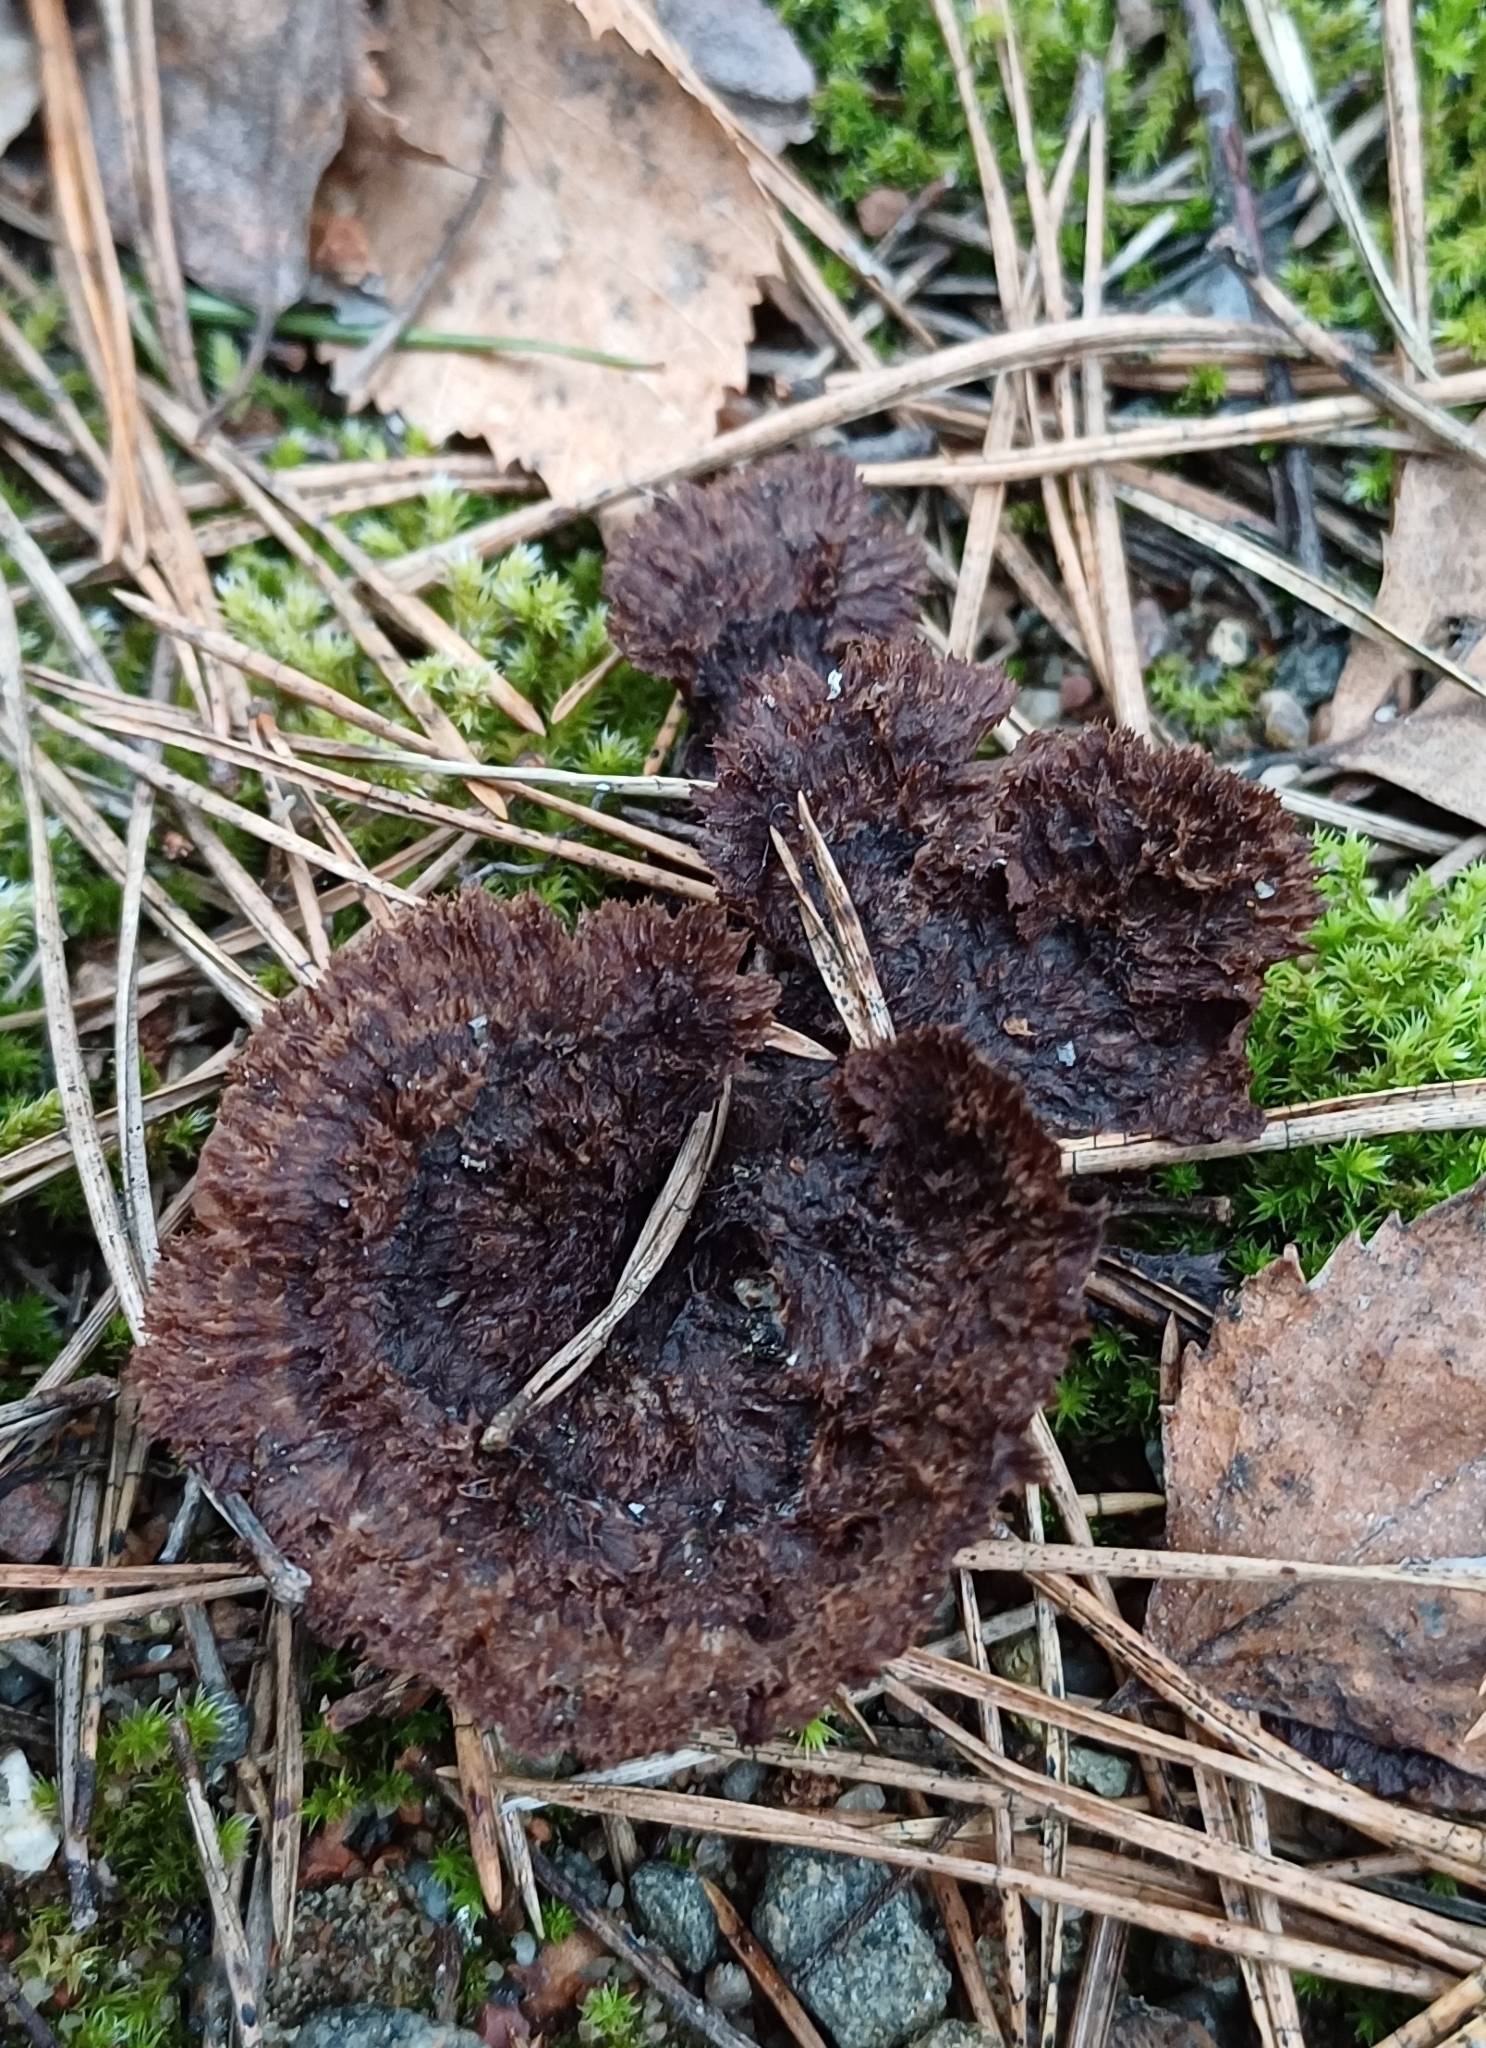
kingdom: Fungi
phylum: Basidiomycota
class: Agaricomycetes
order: Thelephorales
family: Thelephoraceae
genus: Thelephora
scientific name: Thelephora terrestris
